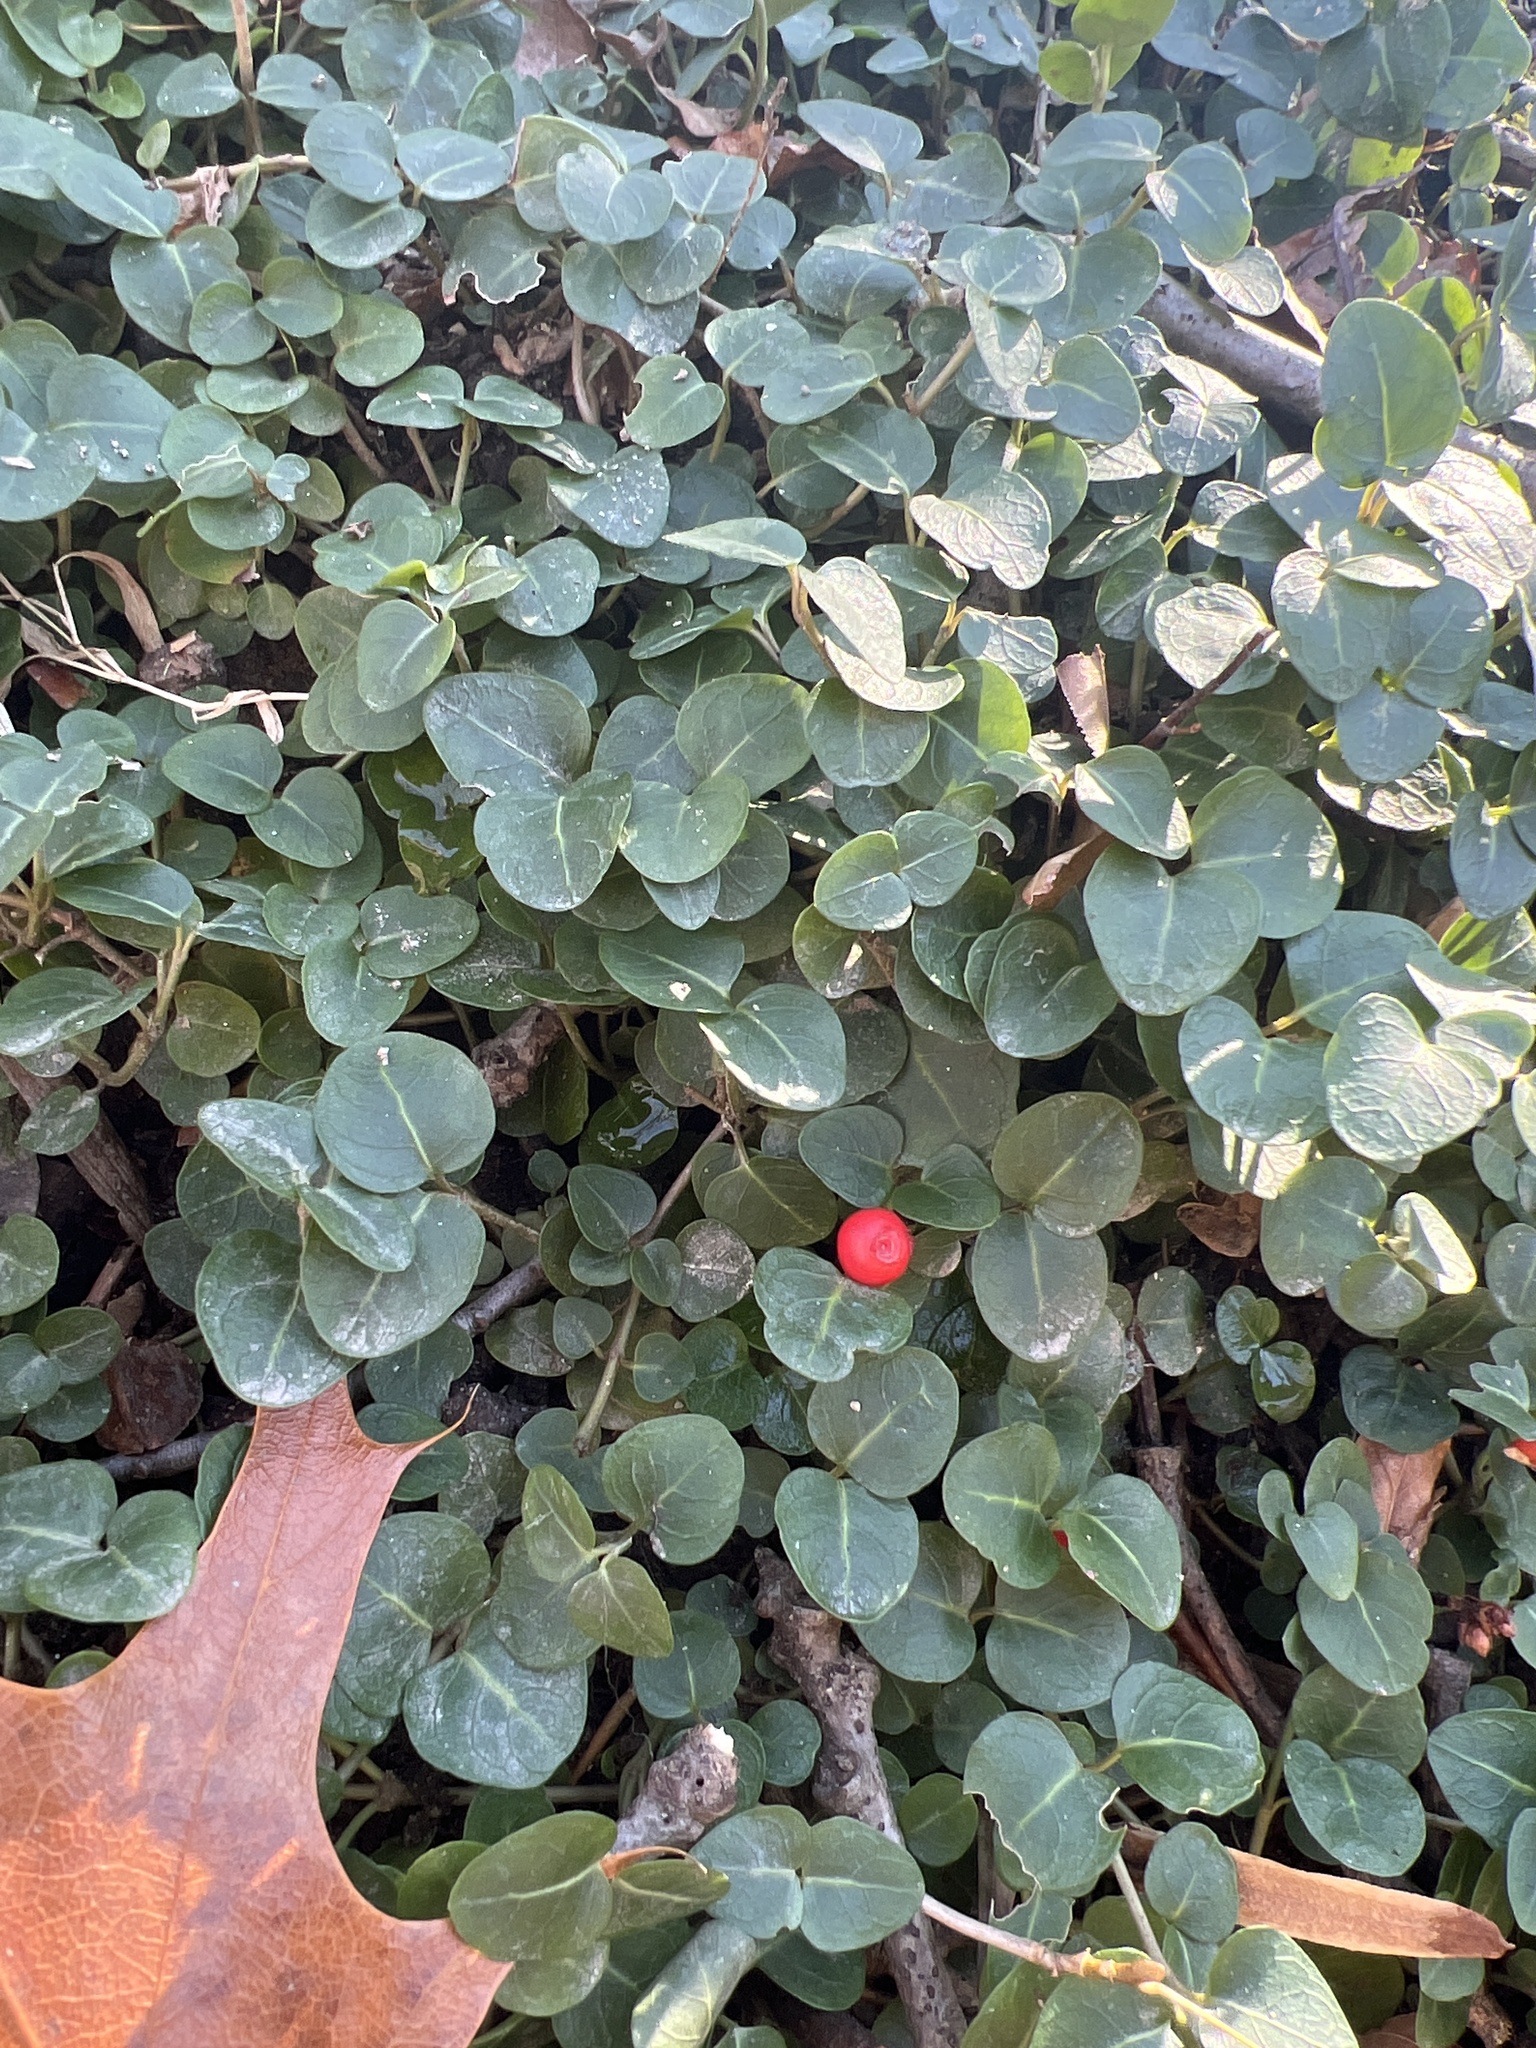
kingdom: Plantae
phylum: Tracheophyta
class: Magnoliopsida
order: Gentianales
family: Rubiaceae
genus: Mitchella
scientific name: Mitchella repens
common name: Partridge-berry
